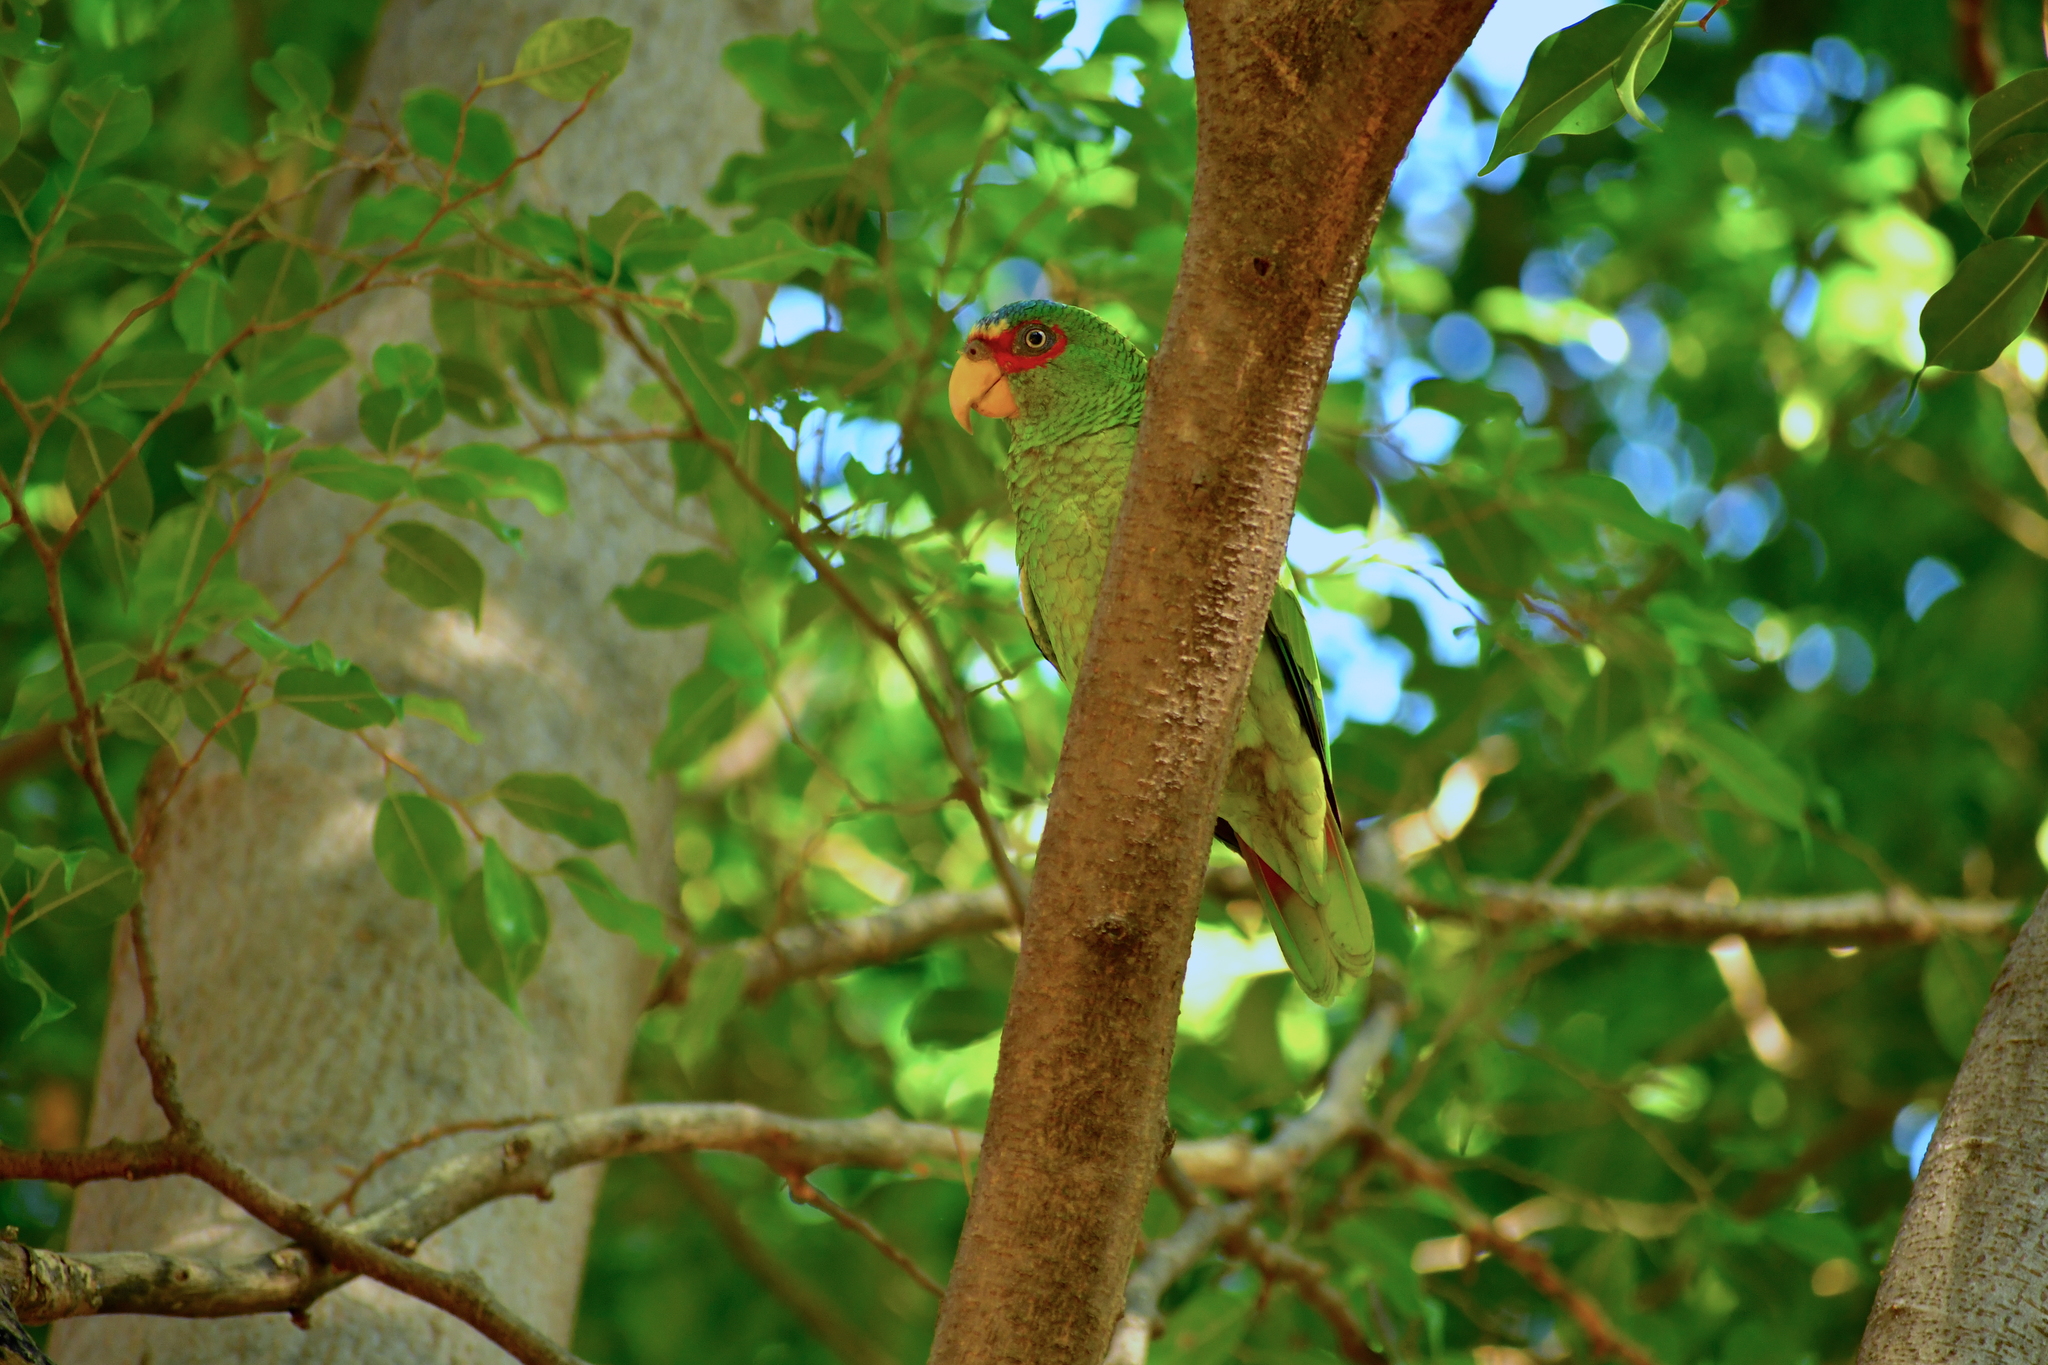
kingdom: Animalia
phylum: Chordata
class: Aves
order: Psittaciformes
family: Psittacidae
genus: Amazona
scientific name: Amazona albifrons
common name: White-fronted amazon
